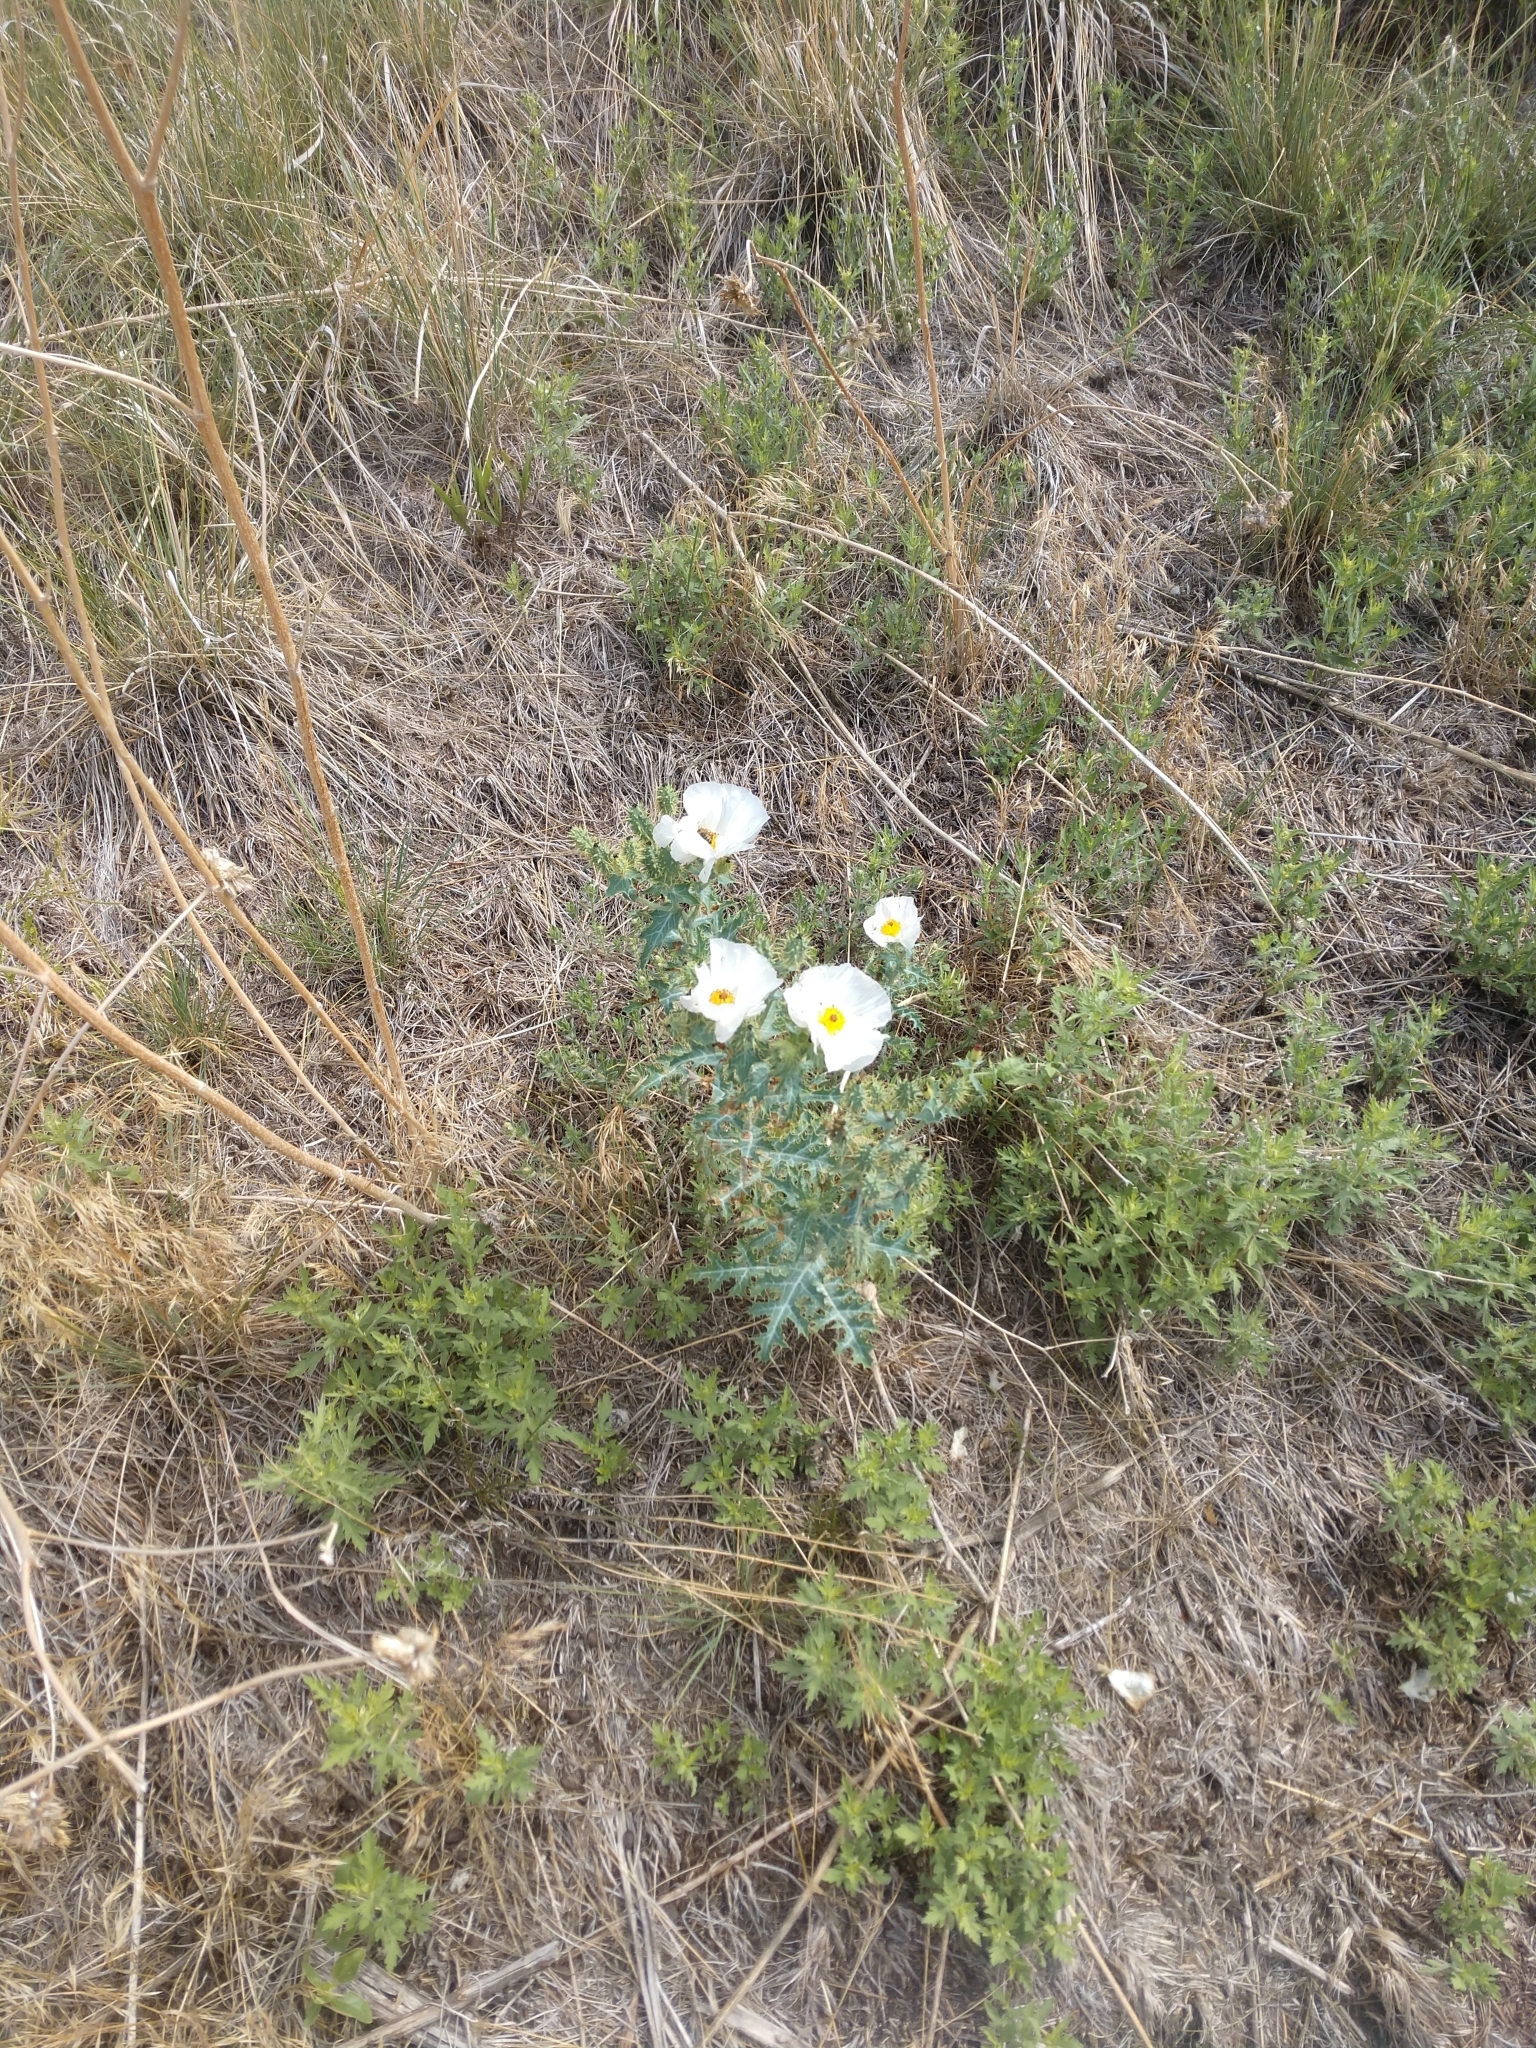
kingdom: Plantae
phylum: Tracheophyta
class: Magnoliopsida
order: Ranunculales
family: Papaveraceae
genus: Argemone
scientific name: Argemone polyanthemos
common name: Plains prickly-poppy
